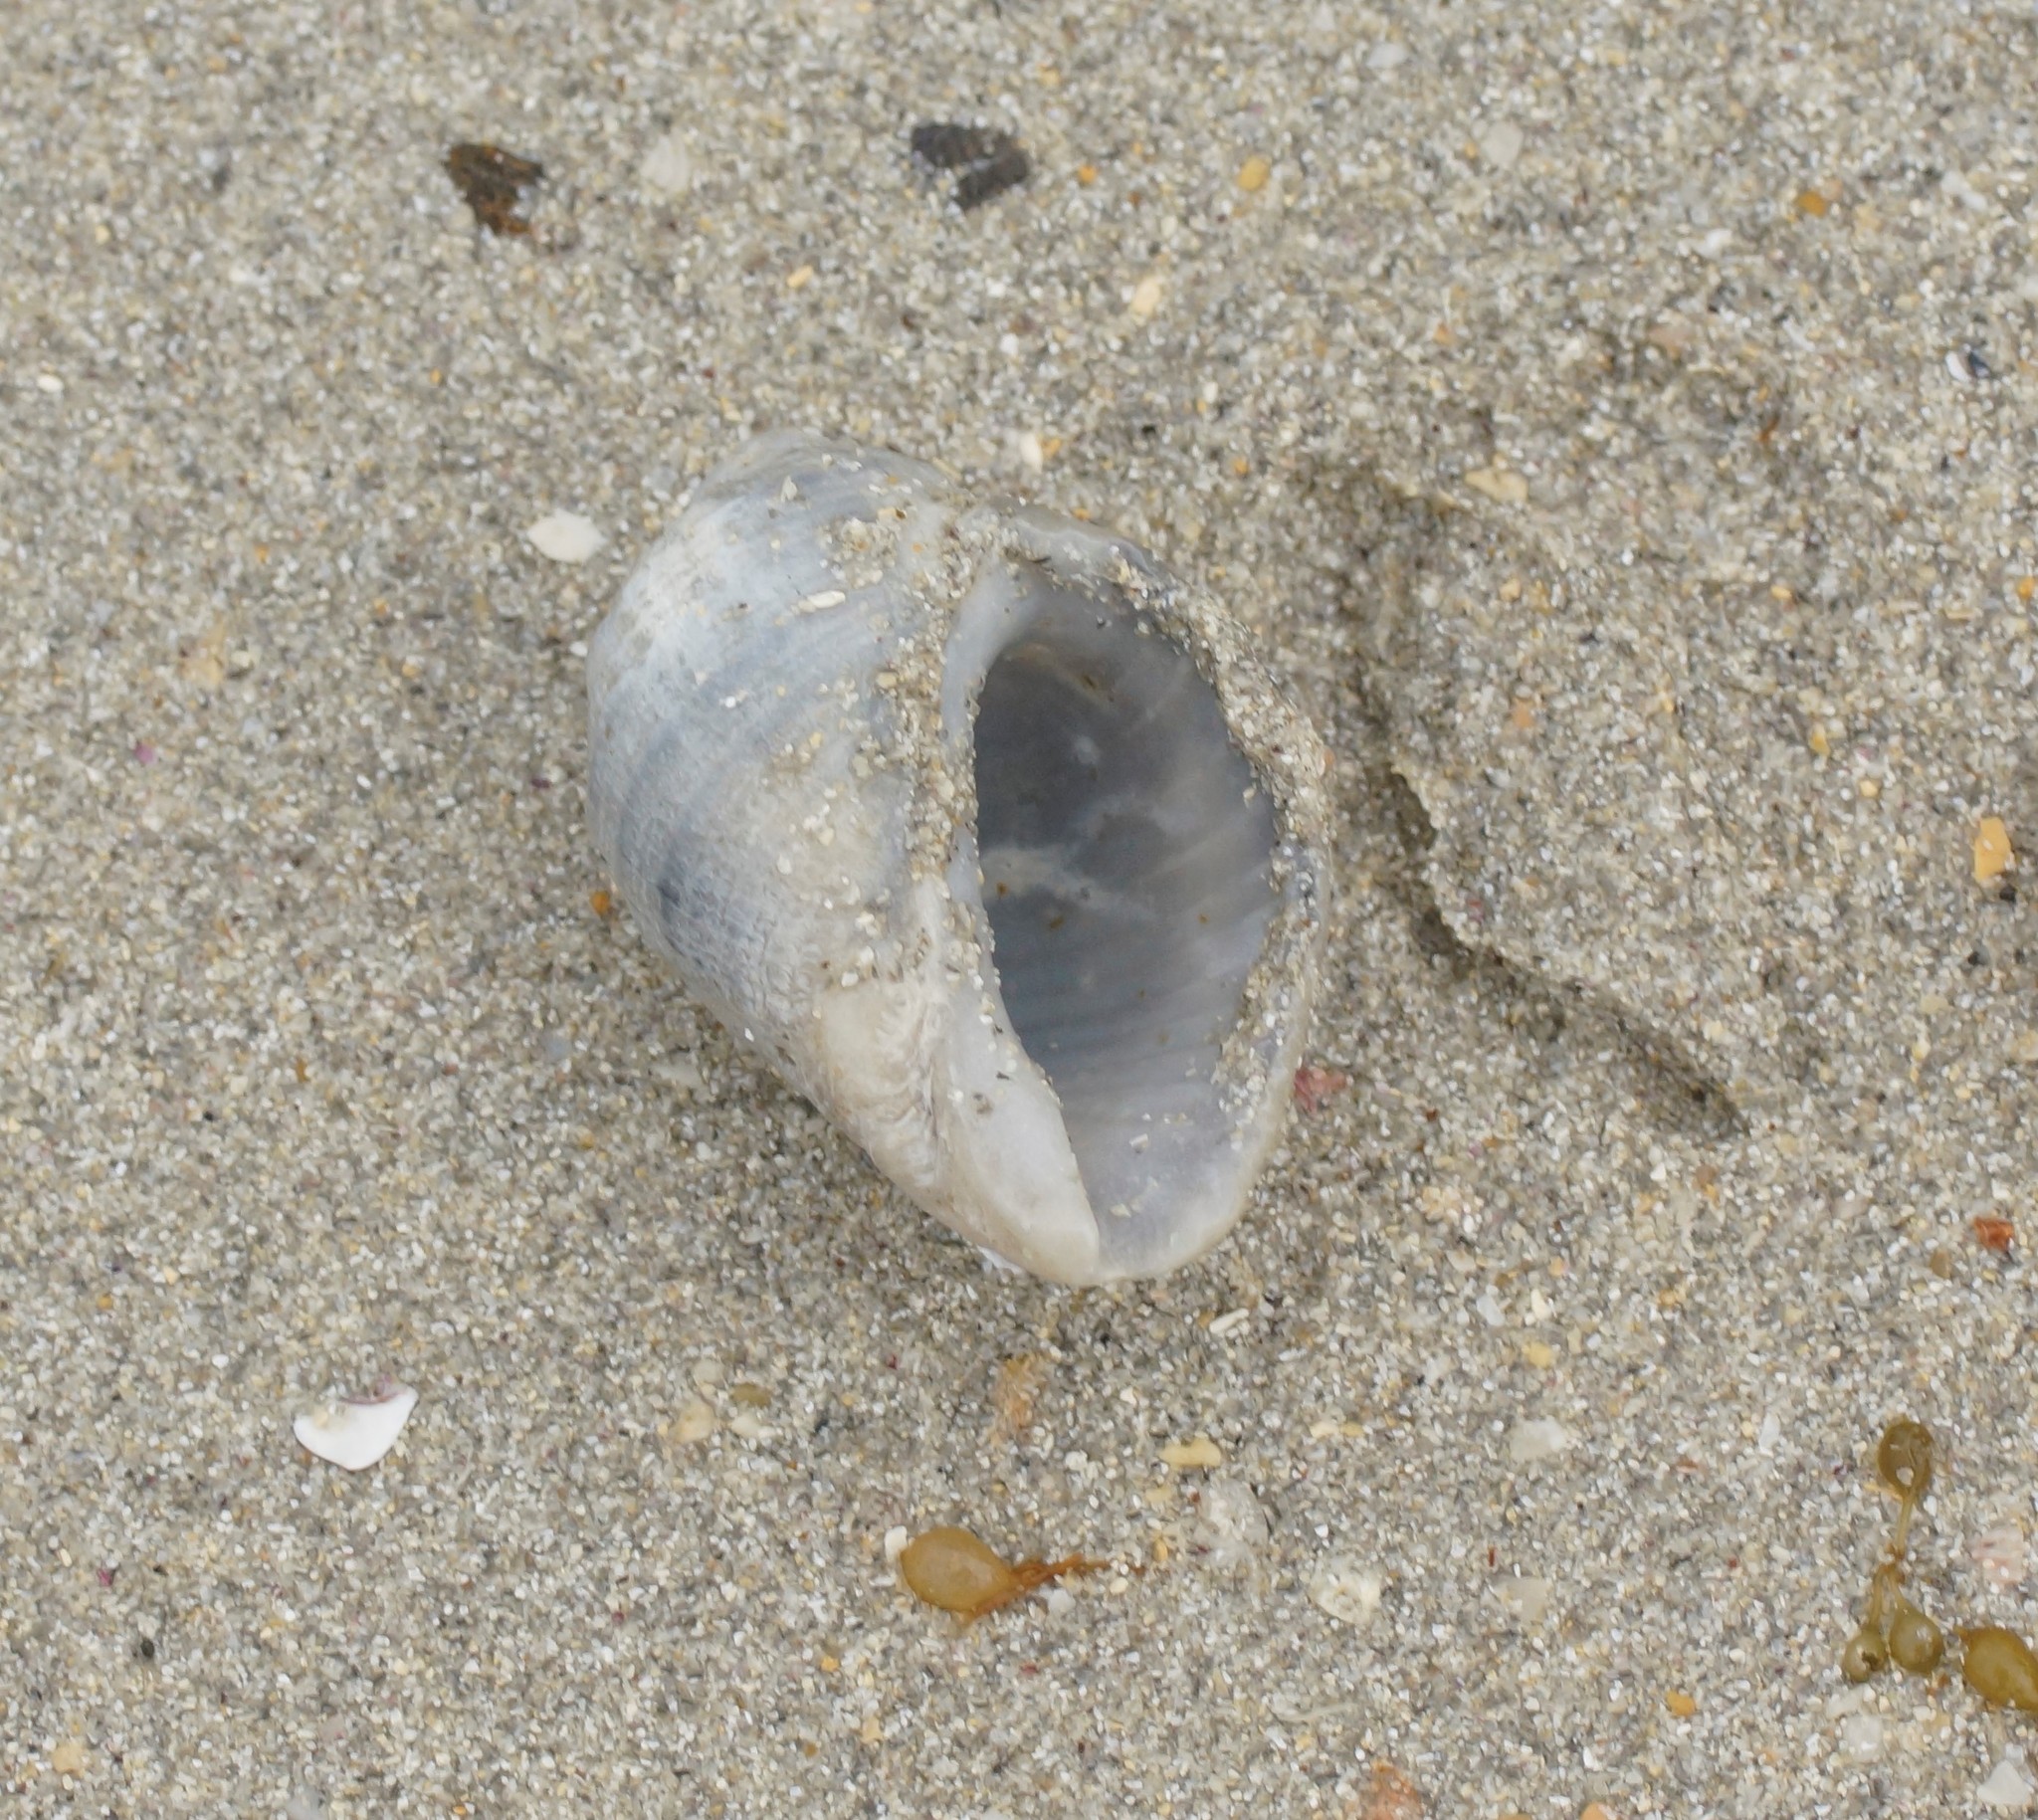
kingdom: Animalia
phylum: Mollusca
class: Gastropoda
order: Neogastropoda
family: Muricidae
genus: Dicathais
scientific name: Dicathais orbita
